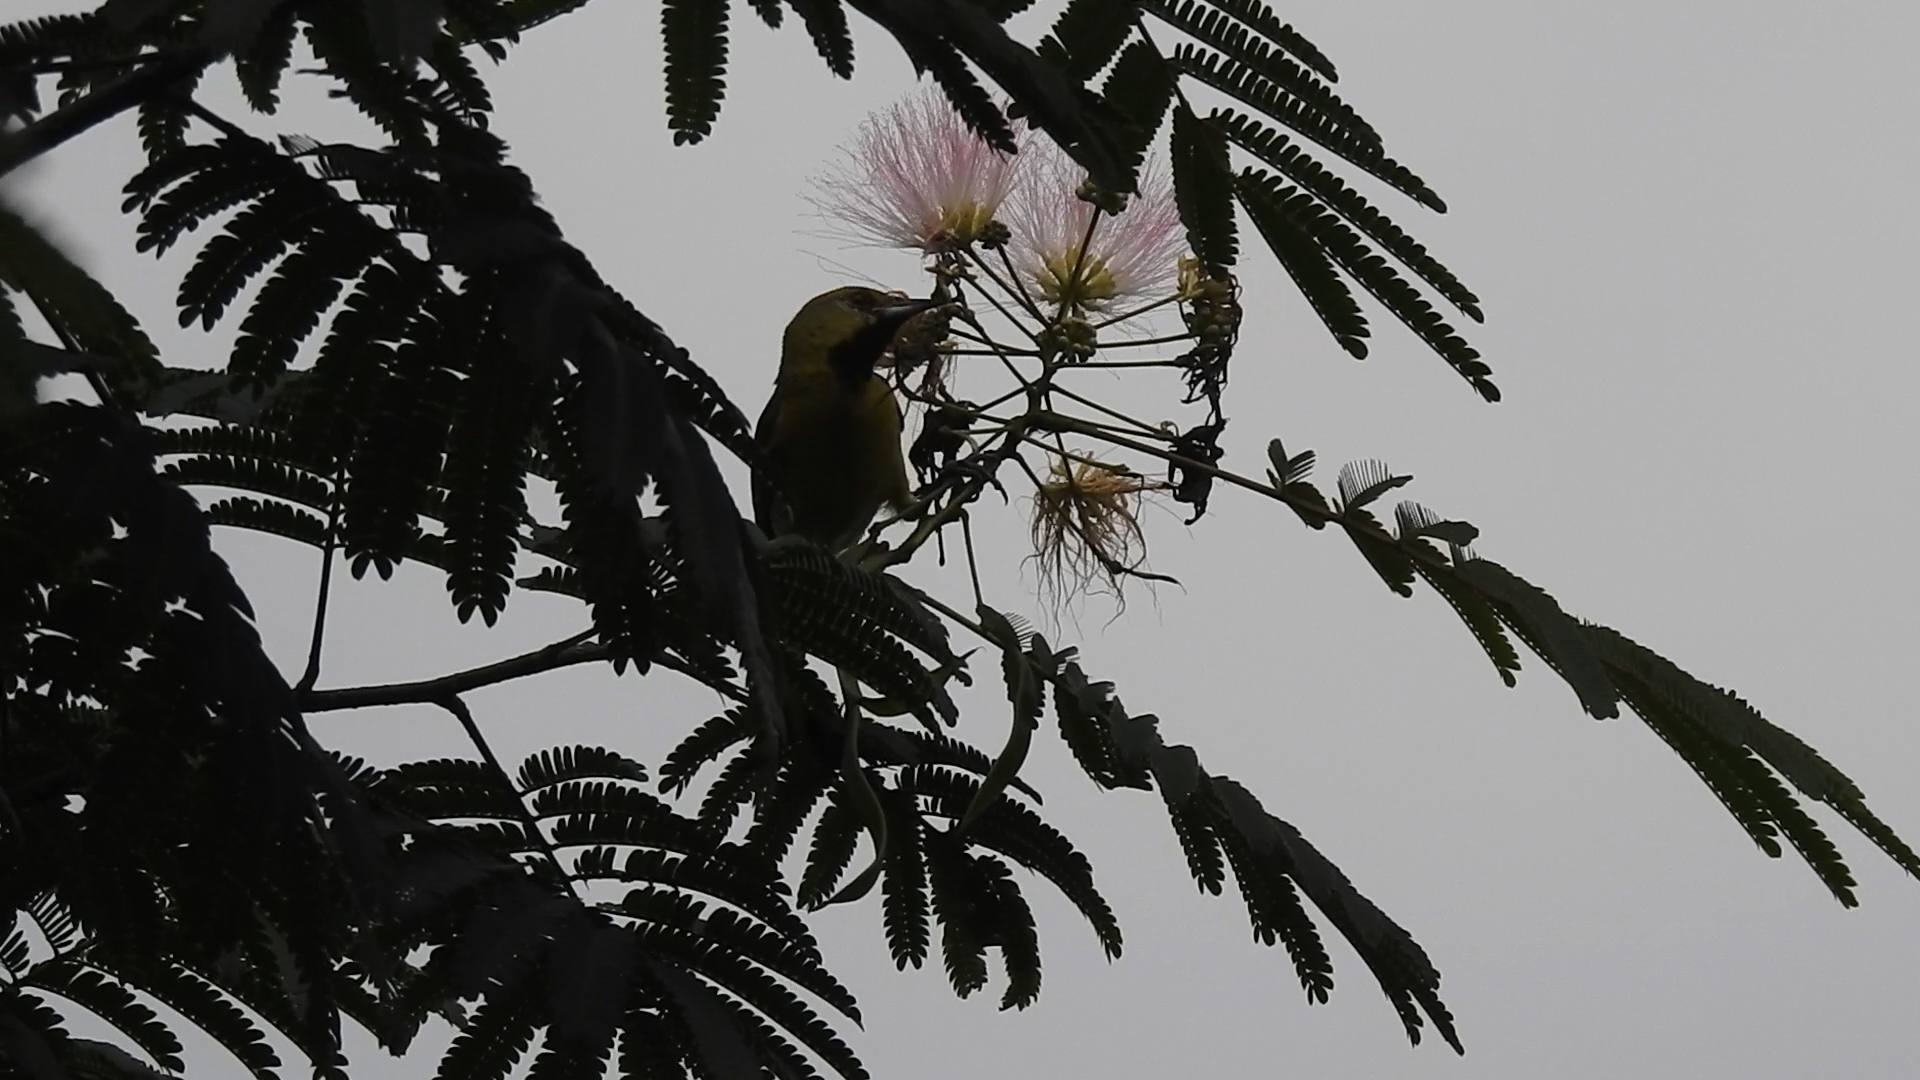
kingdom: Animalia
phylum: Chordata
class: Aves
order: Passeriformes
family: Icteridae
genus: Icterus
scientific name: Icterus spurius
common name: Orchard oriole
